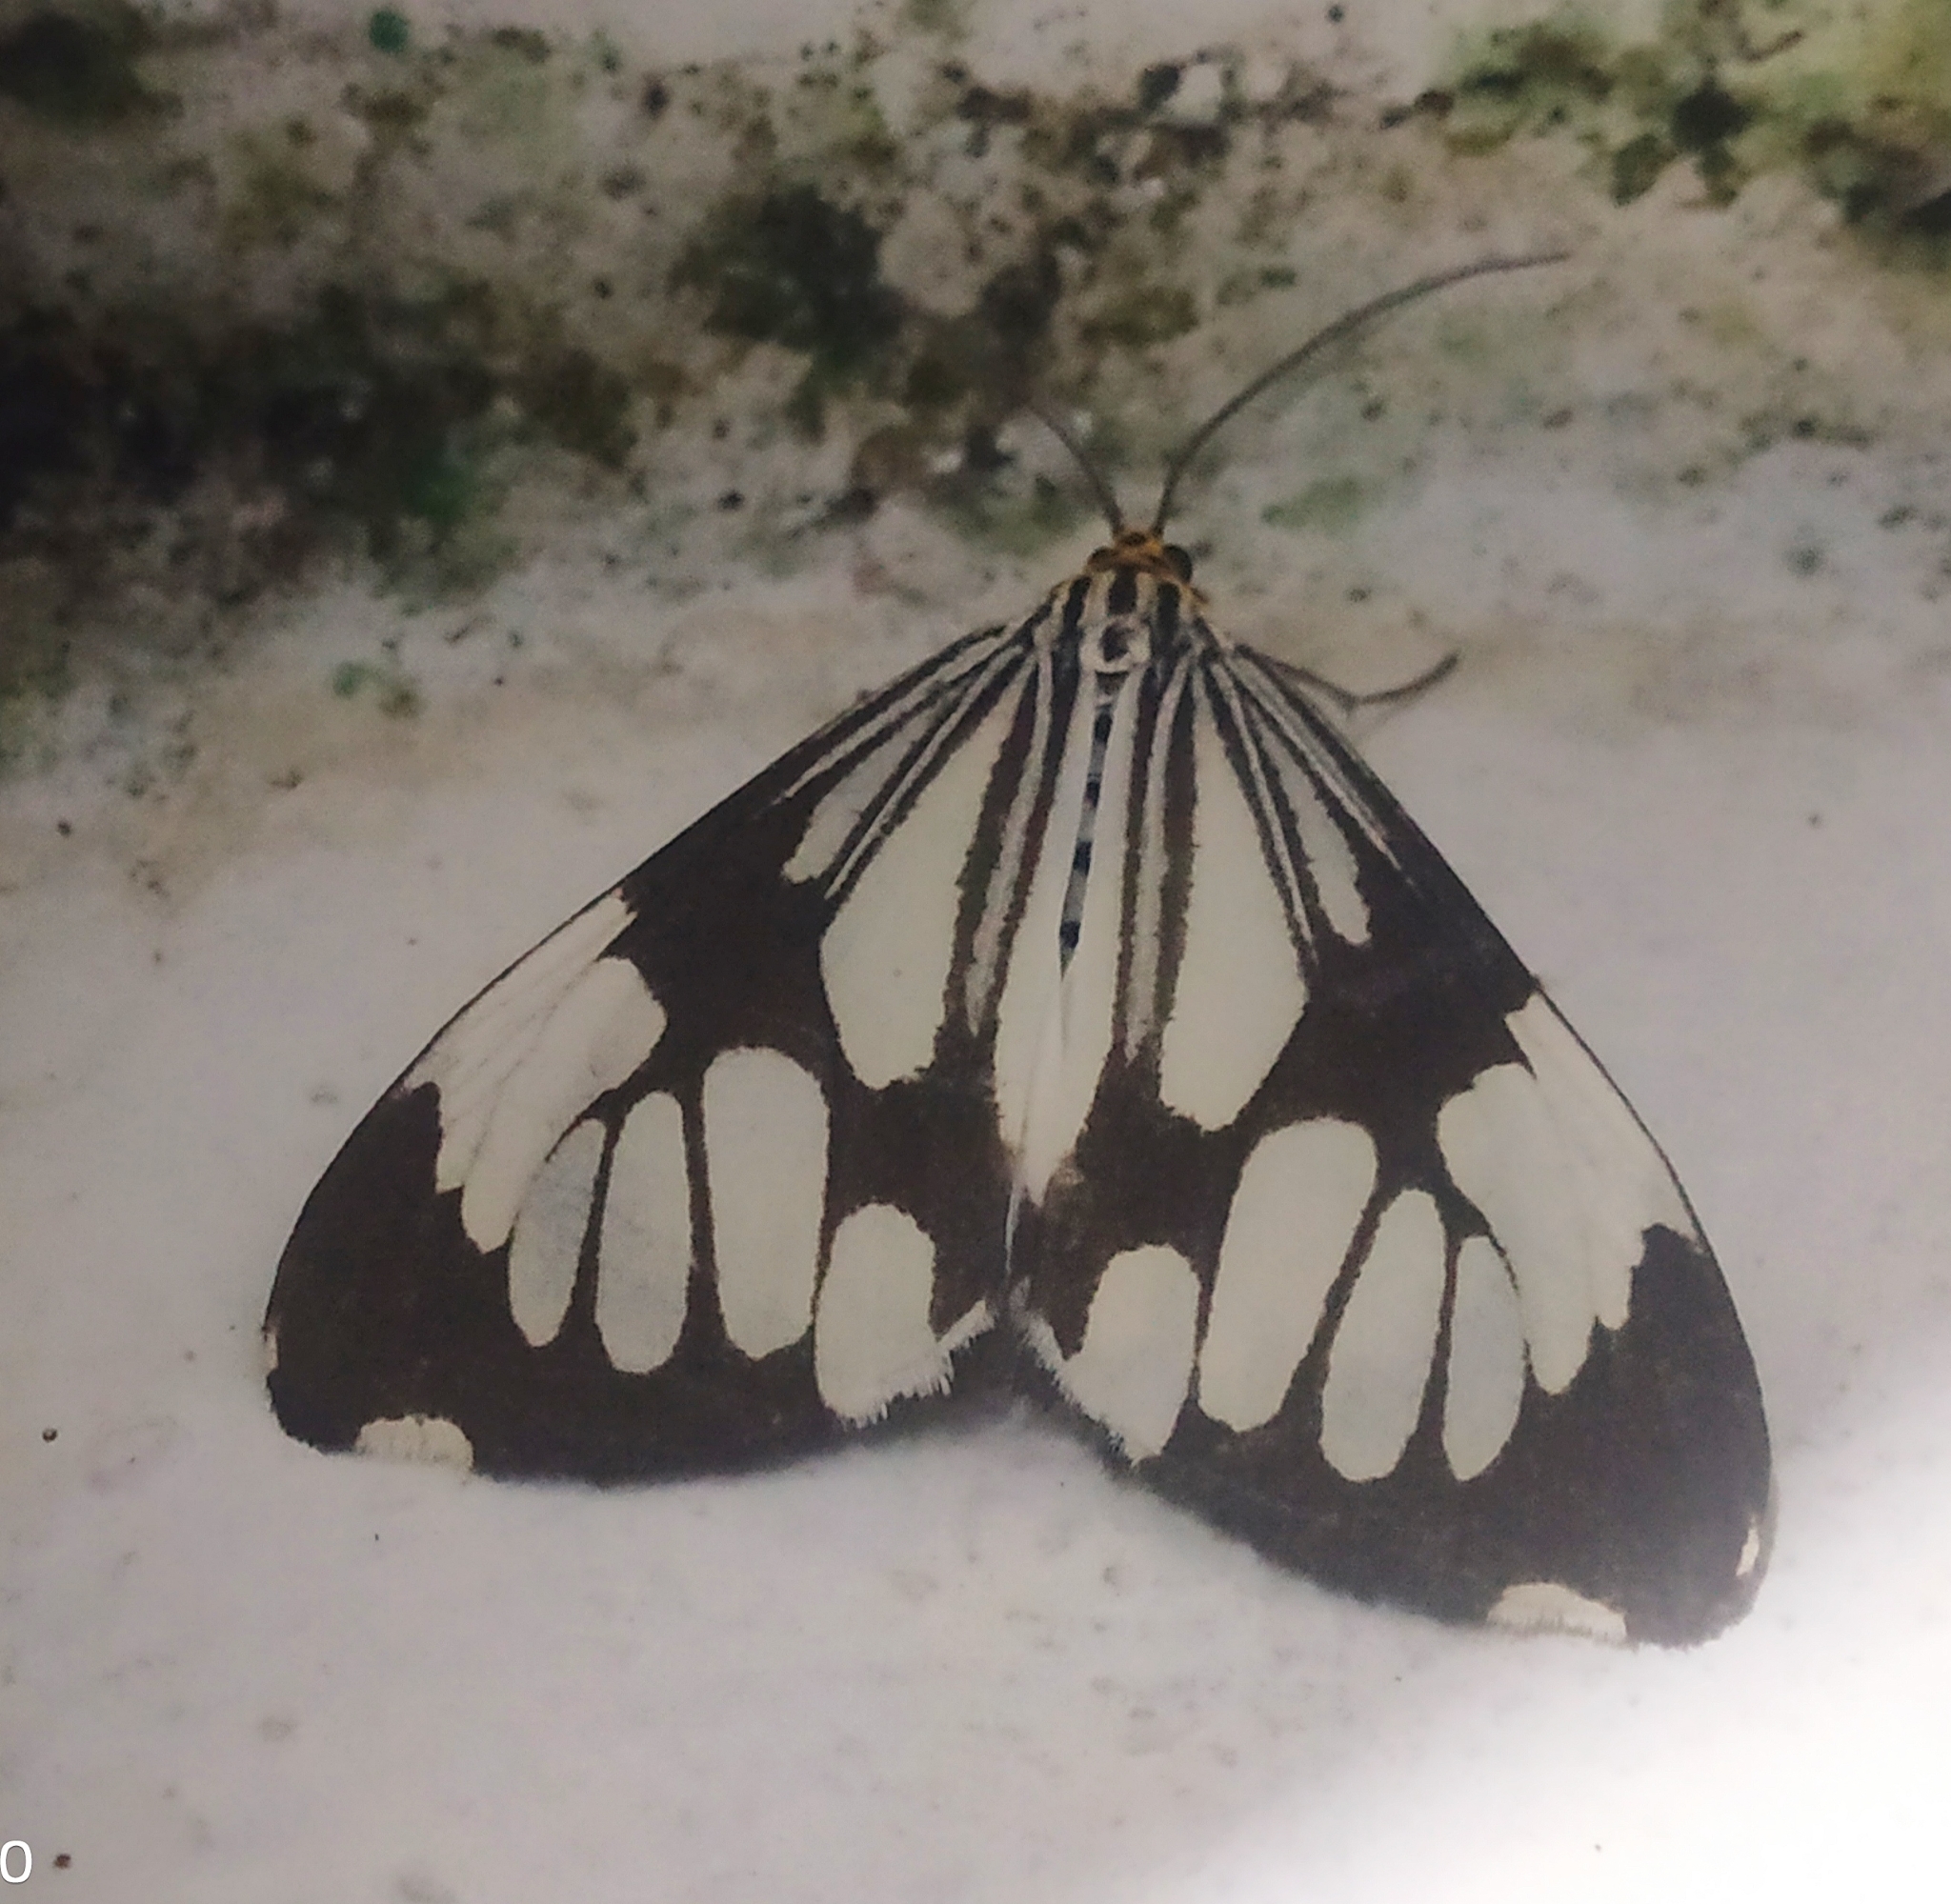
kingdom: Animalia
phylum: Arthropoda
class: Insecta
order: Lepidoptera
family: Erebidae
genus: Nyctemera
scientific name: Nyctemera coleta
